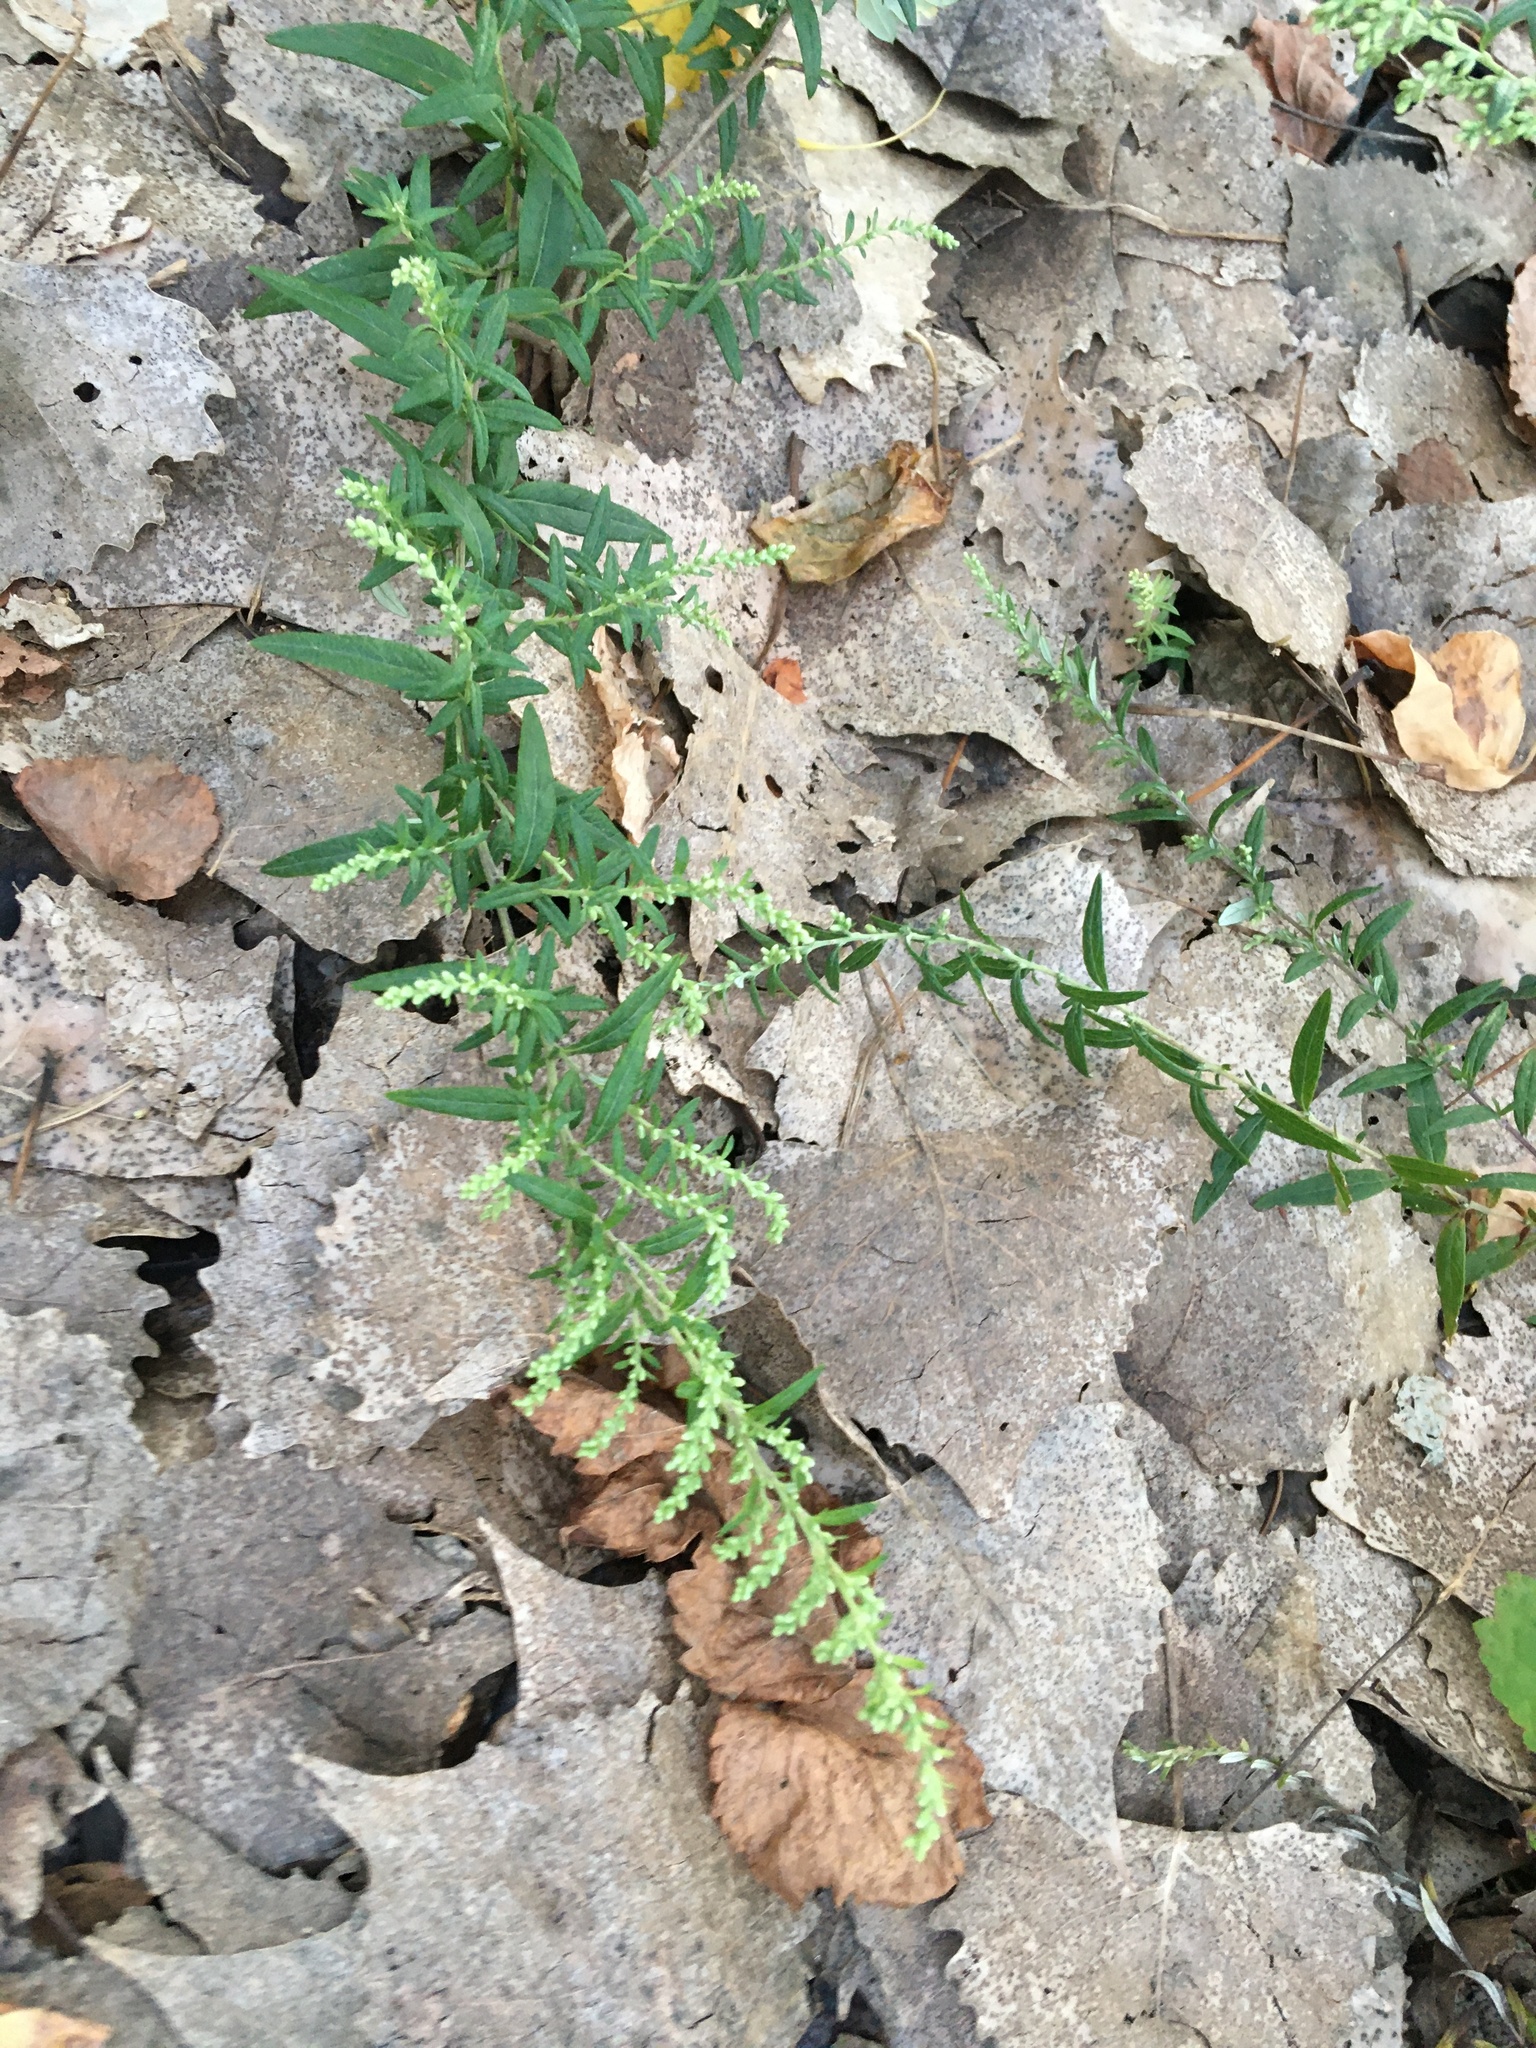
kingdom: Plantae
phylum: Tracheophyta
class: Magnoliopsida
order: Asterales
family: Asteraceae
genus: Artemisia
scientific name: Artemisia vulgaris
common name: Mugwort
